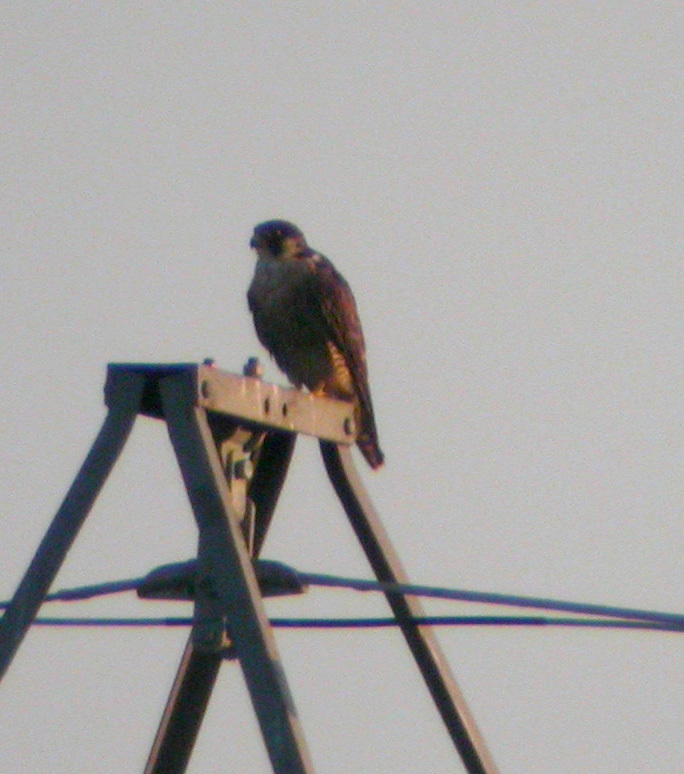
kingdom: Animalia
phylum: Chordata
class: Aves
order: Falconiformes
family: Falconidae
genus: Falco
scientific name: Falco peregrinus
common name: Peregrine falcon
